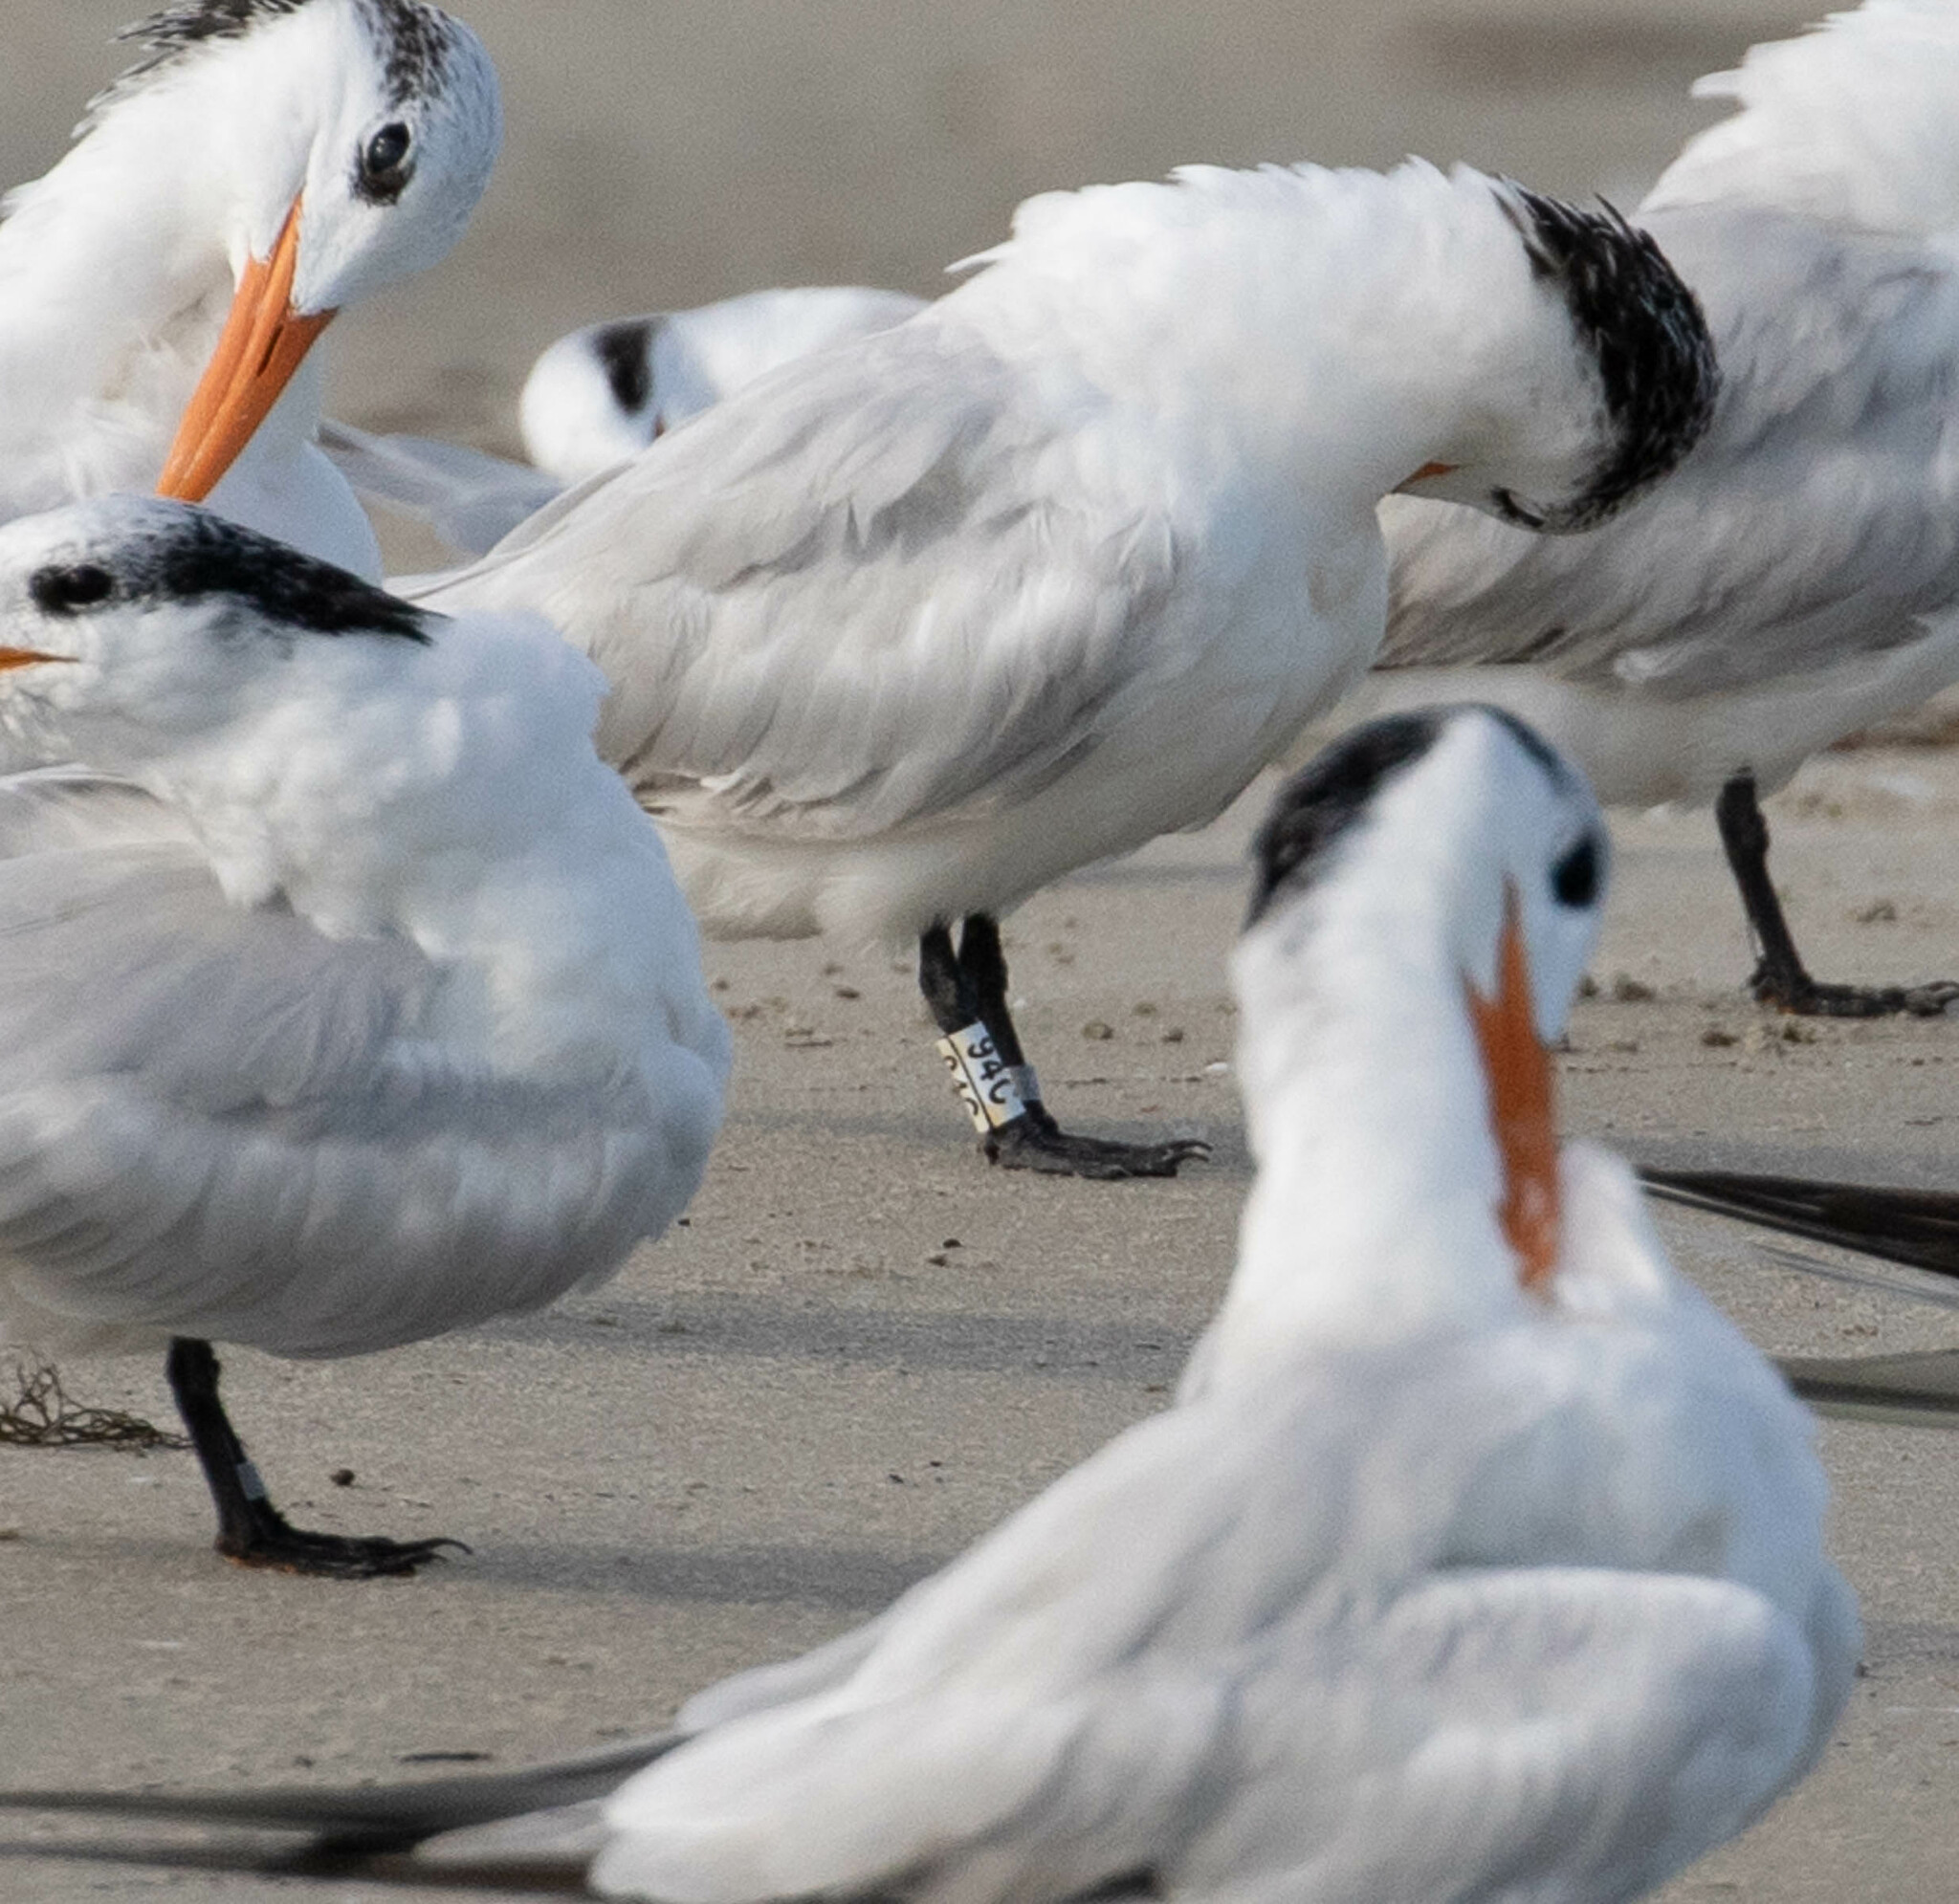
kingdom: Animalia
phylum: Chordata
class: Aves
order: Charadriiformes
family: Laridae
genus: Thalasseus
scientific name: Thalasseus maximus
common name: Royal tern
